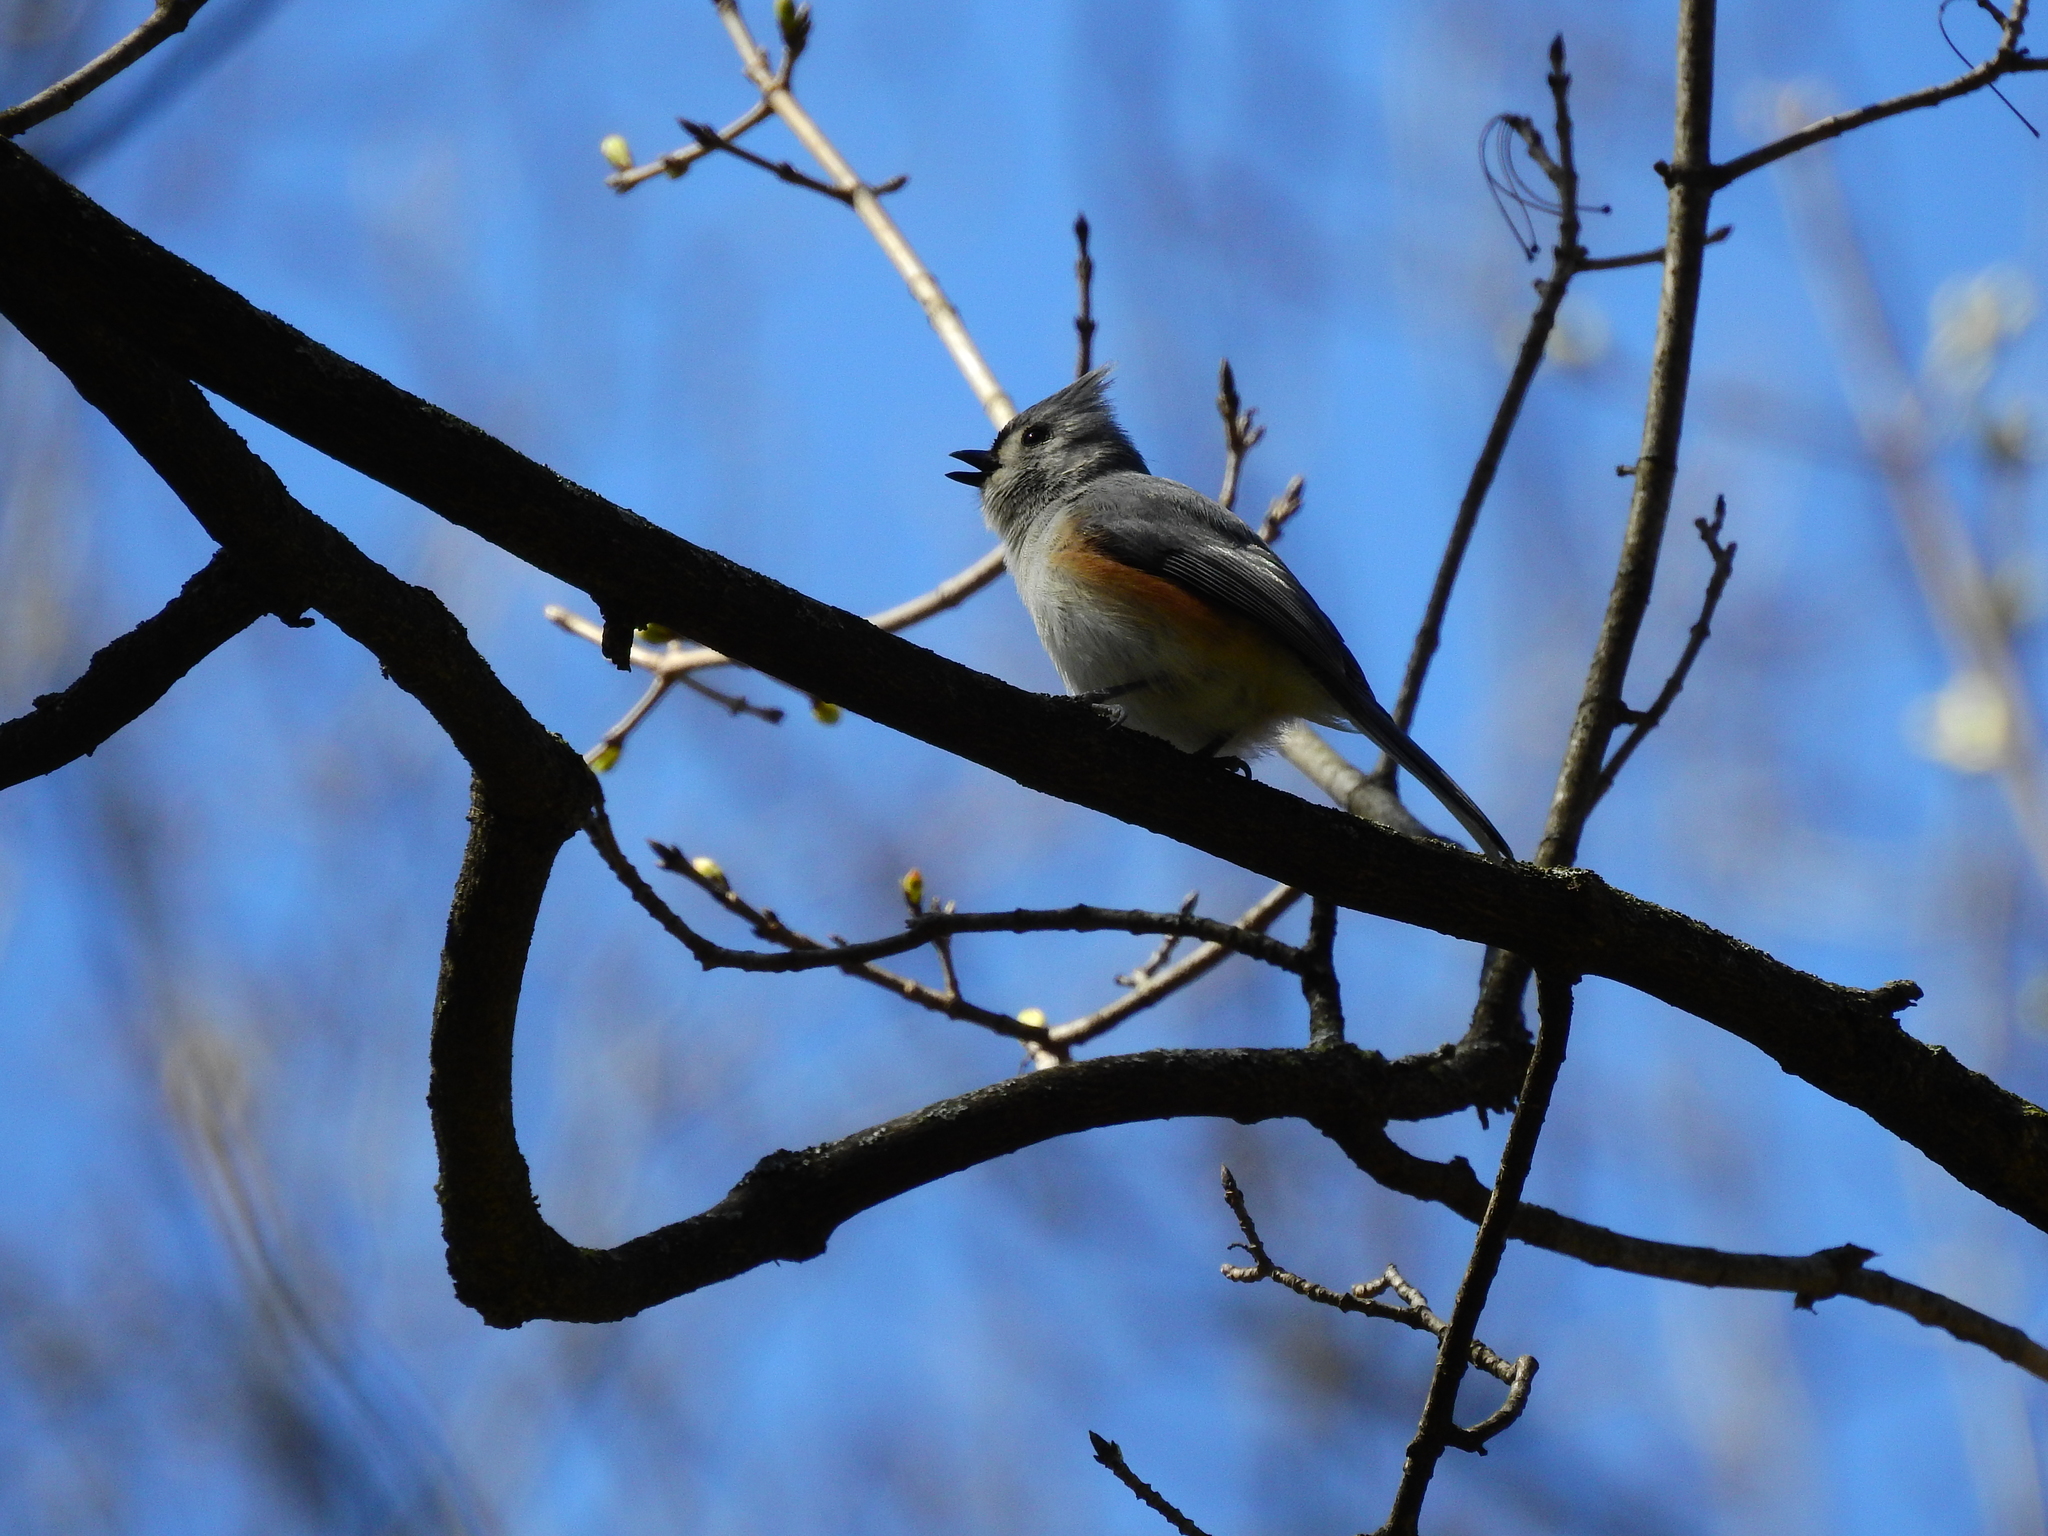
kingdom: Animalia
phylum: Chordata
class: Aves
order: Passeriformes
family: Paridae
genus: Baeolophus
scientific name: Baeolophus bicolor
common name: Tufted titmouse
